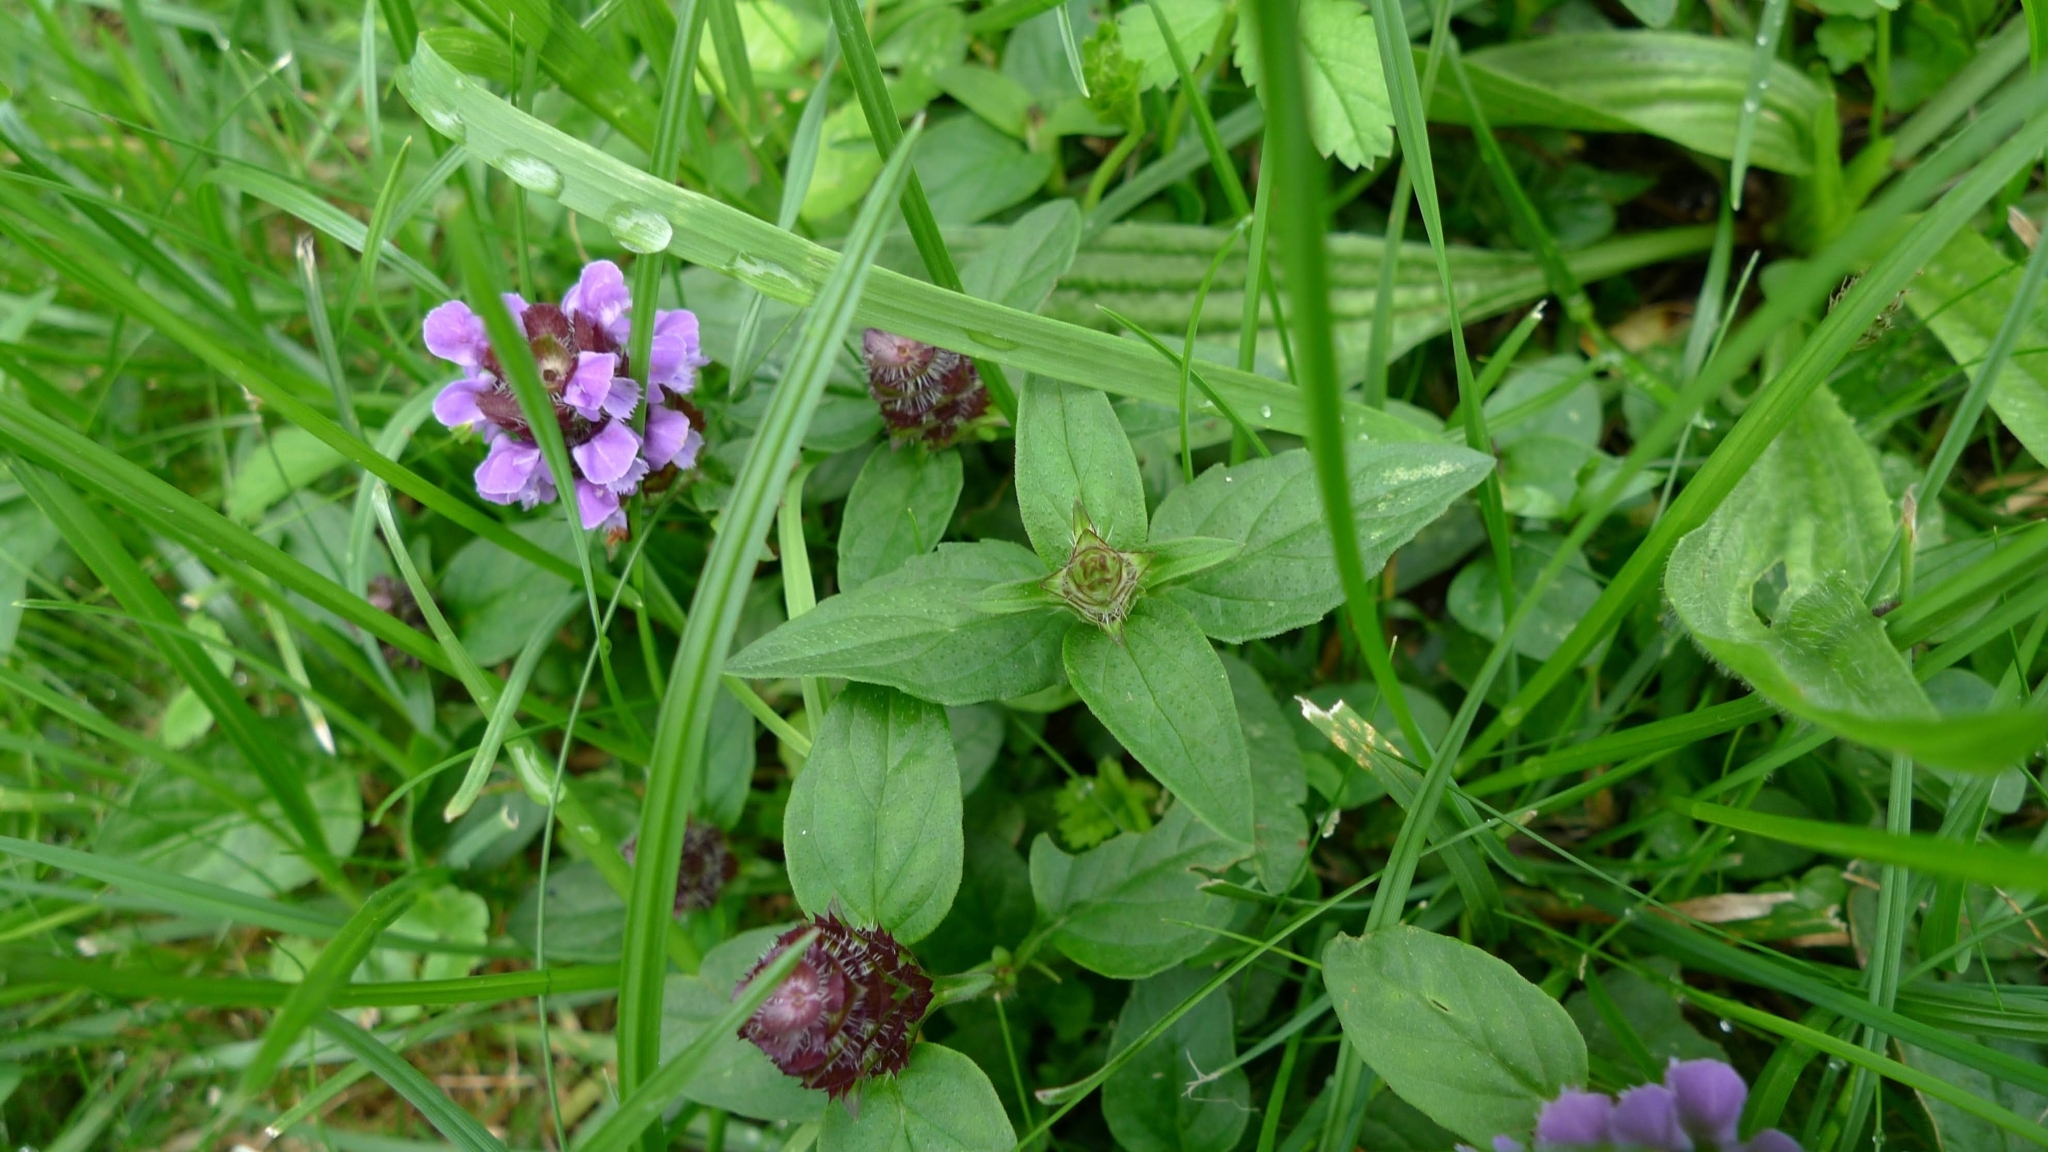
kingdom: Plantae
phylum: Tracheophyta
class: Magnoliopsida
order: Lamiales
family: Lamiaceae
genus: Prunella
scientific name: Prunella vulgaris
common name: Heal-all
